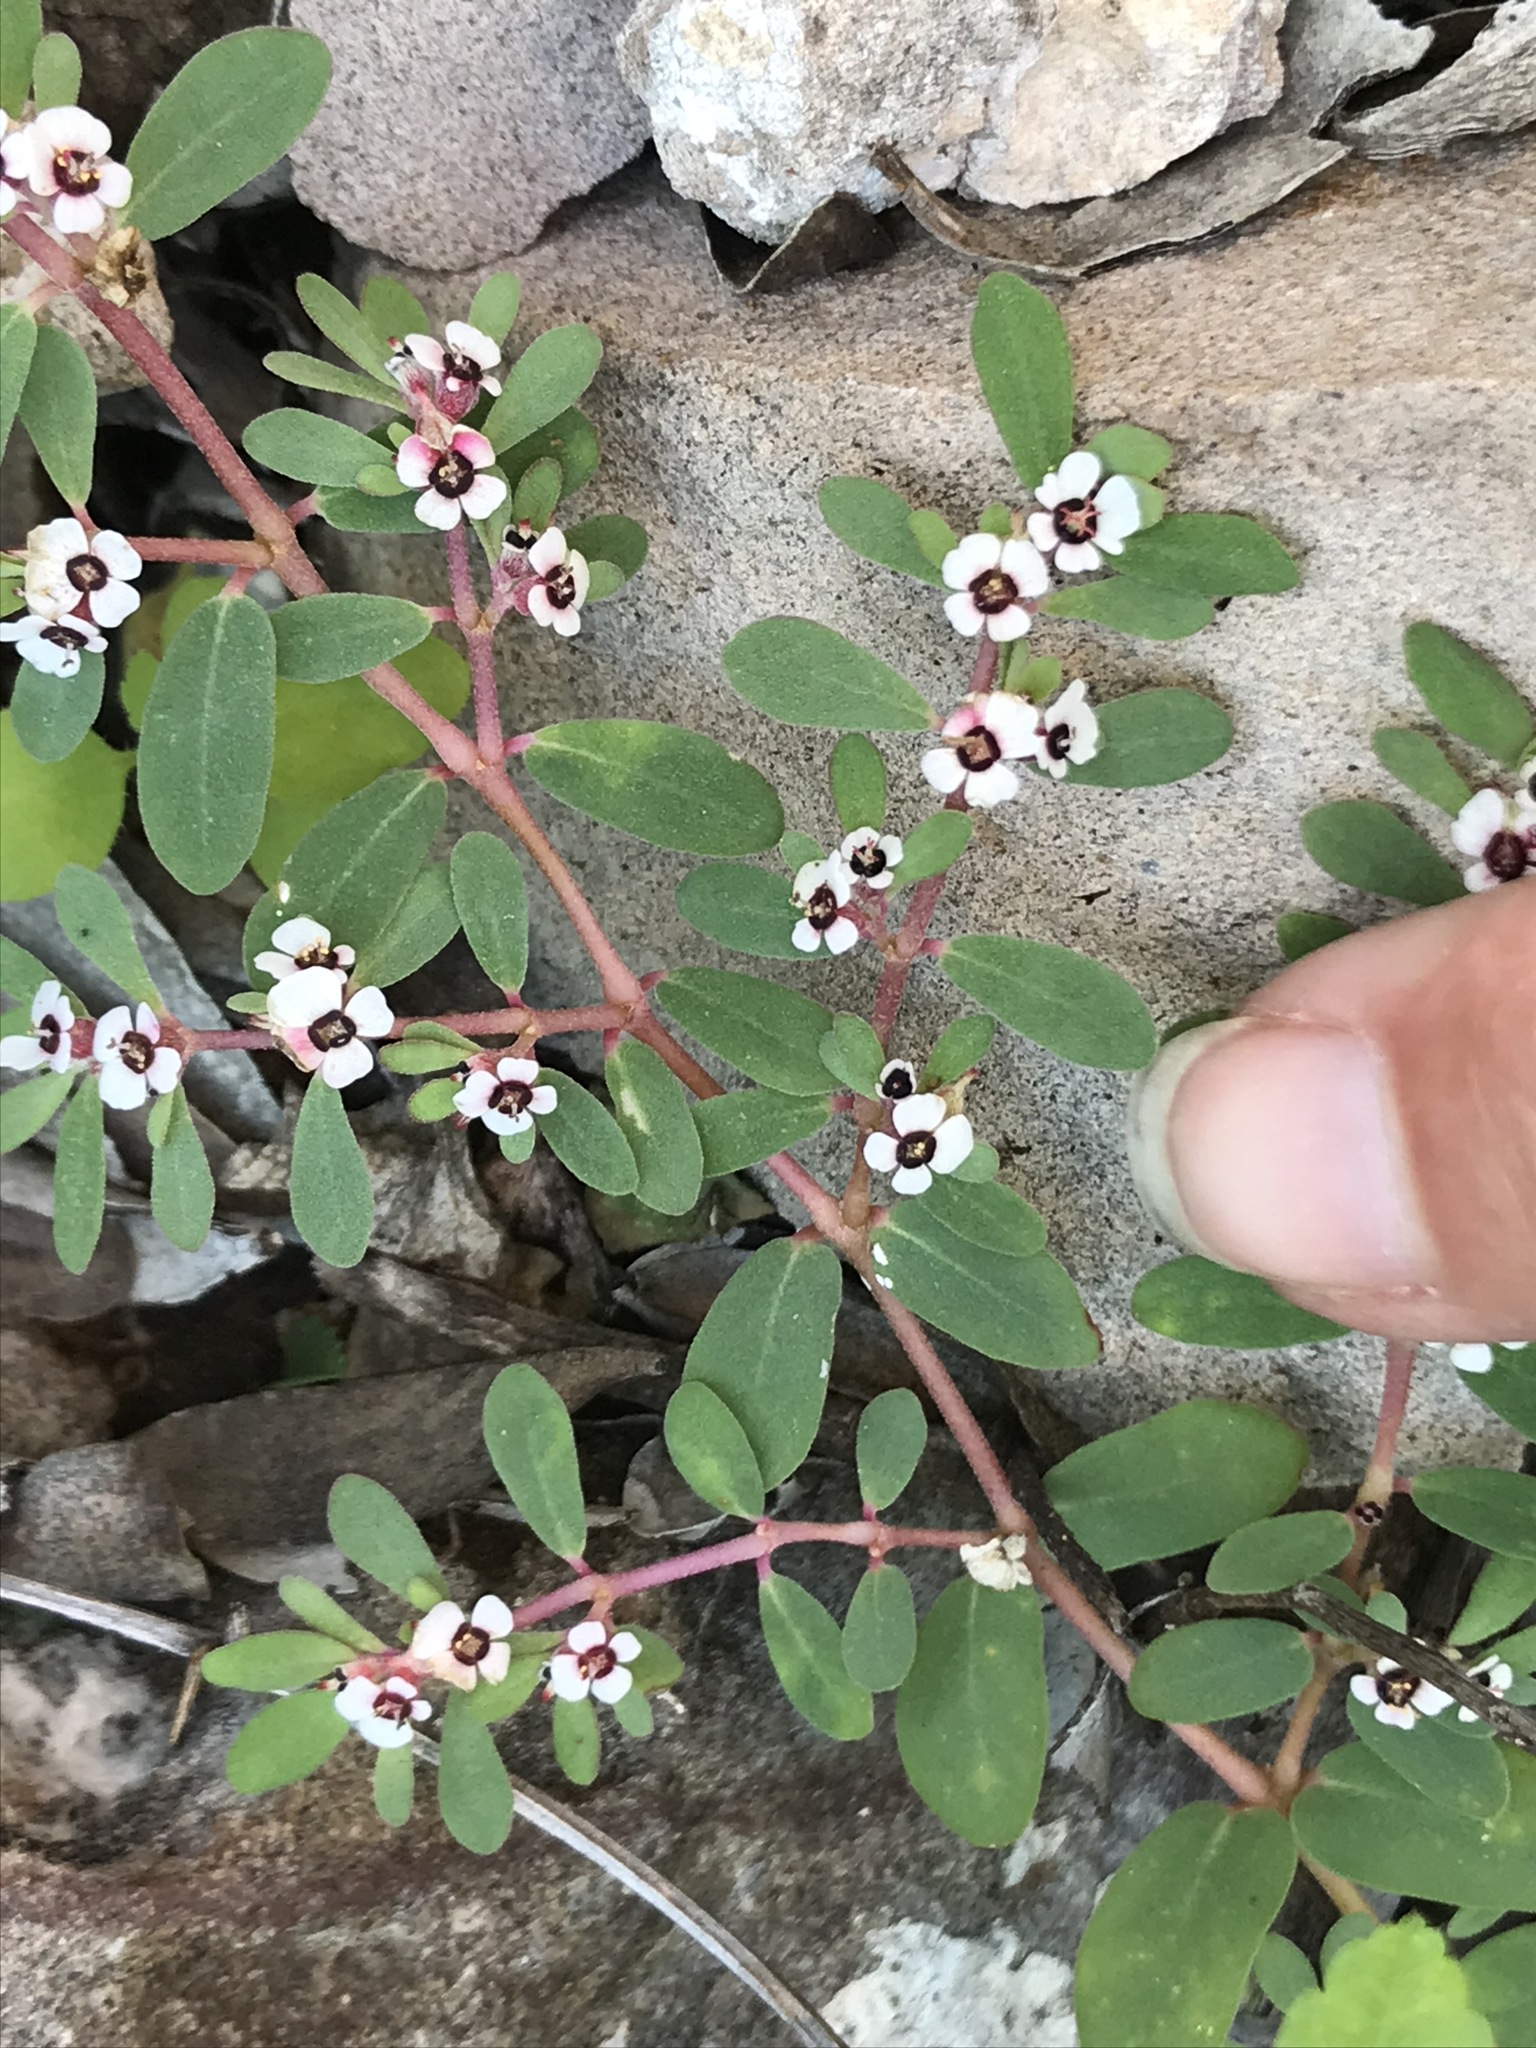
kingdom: Plantae
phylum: Tracheophyta
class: Magnoliopsida
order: Malpighiales
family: Euphorbiaceae
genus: Euphorbia
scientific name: Euphorbia pediculifera
